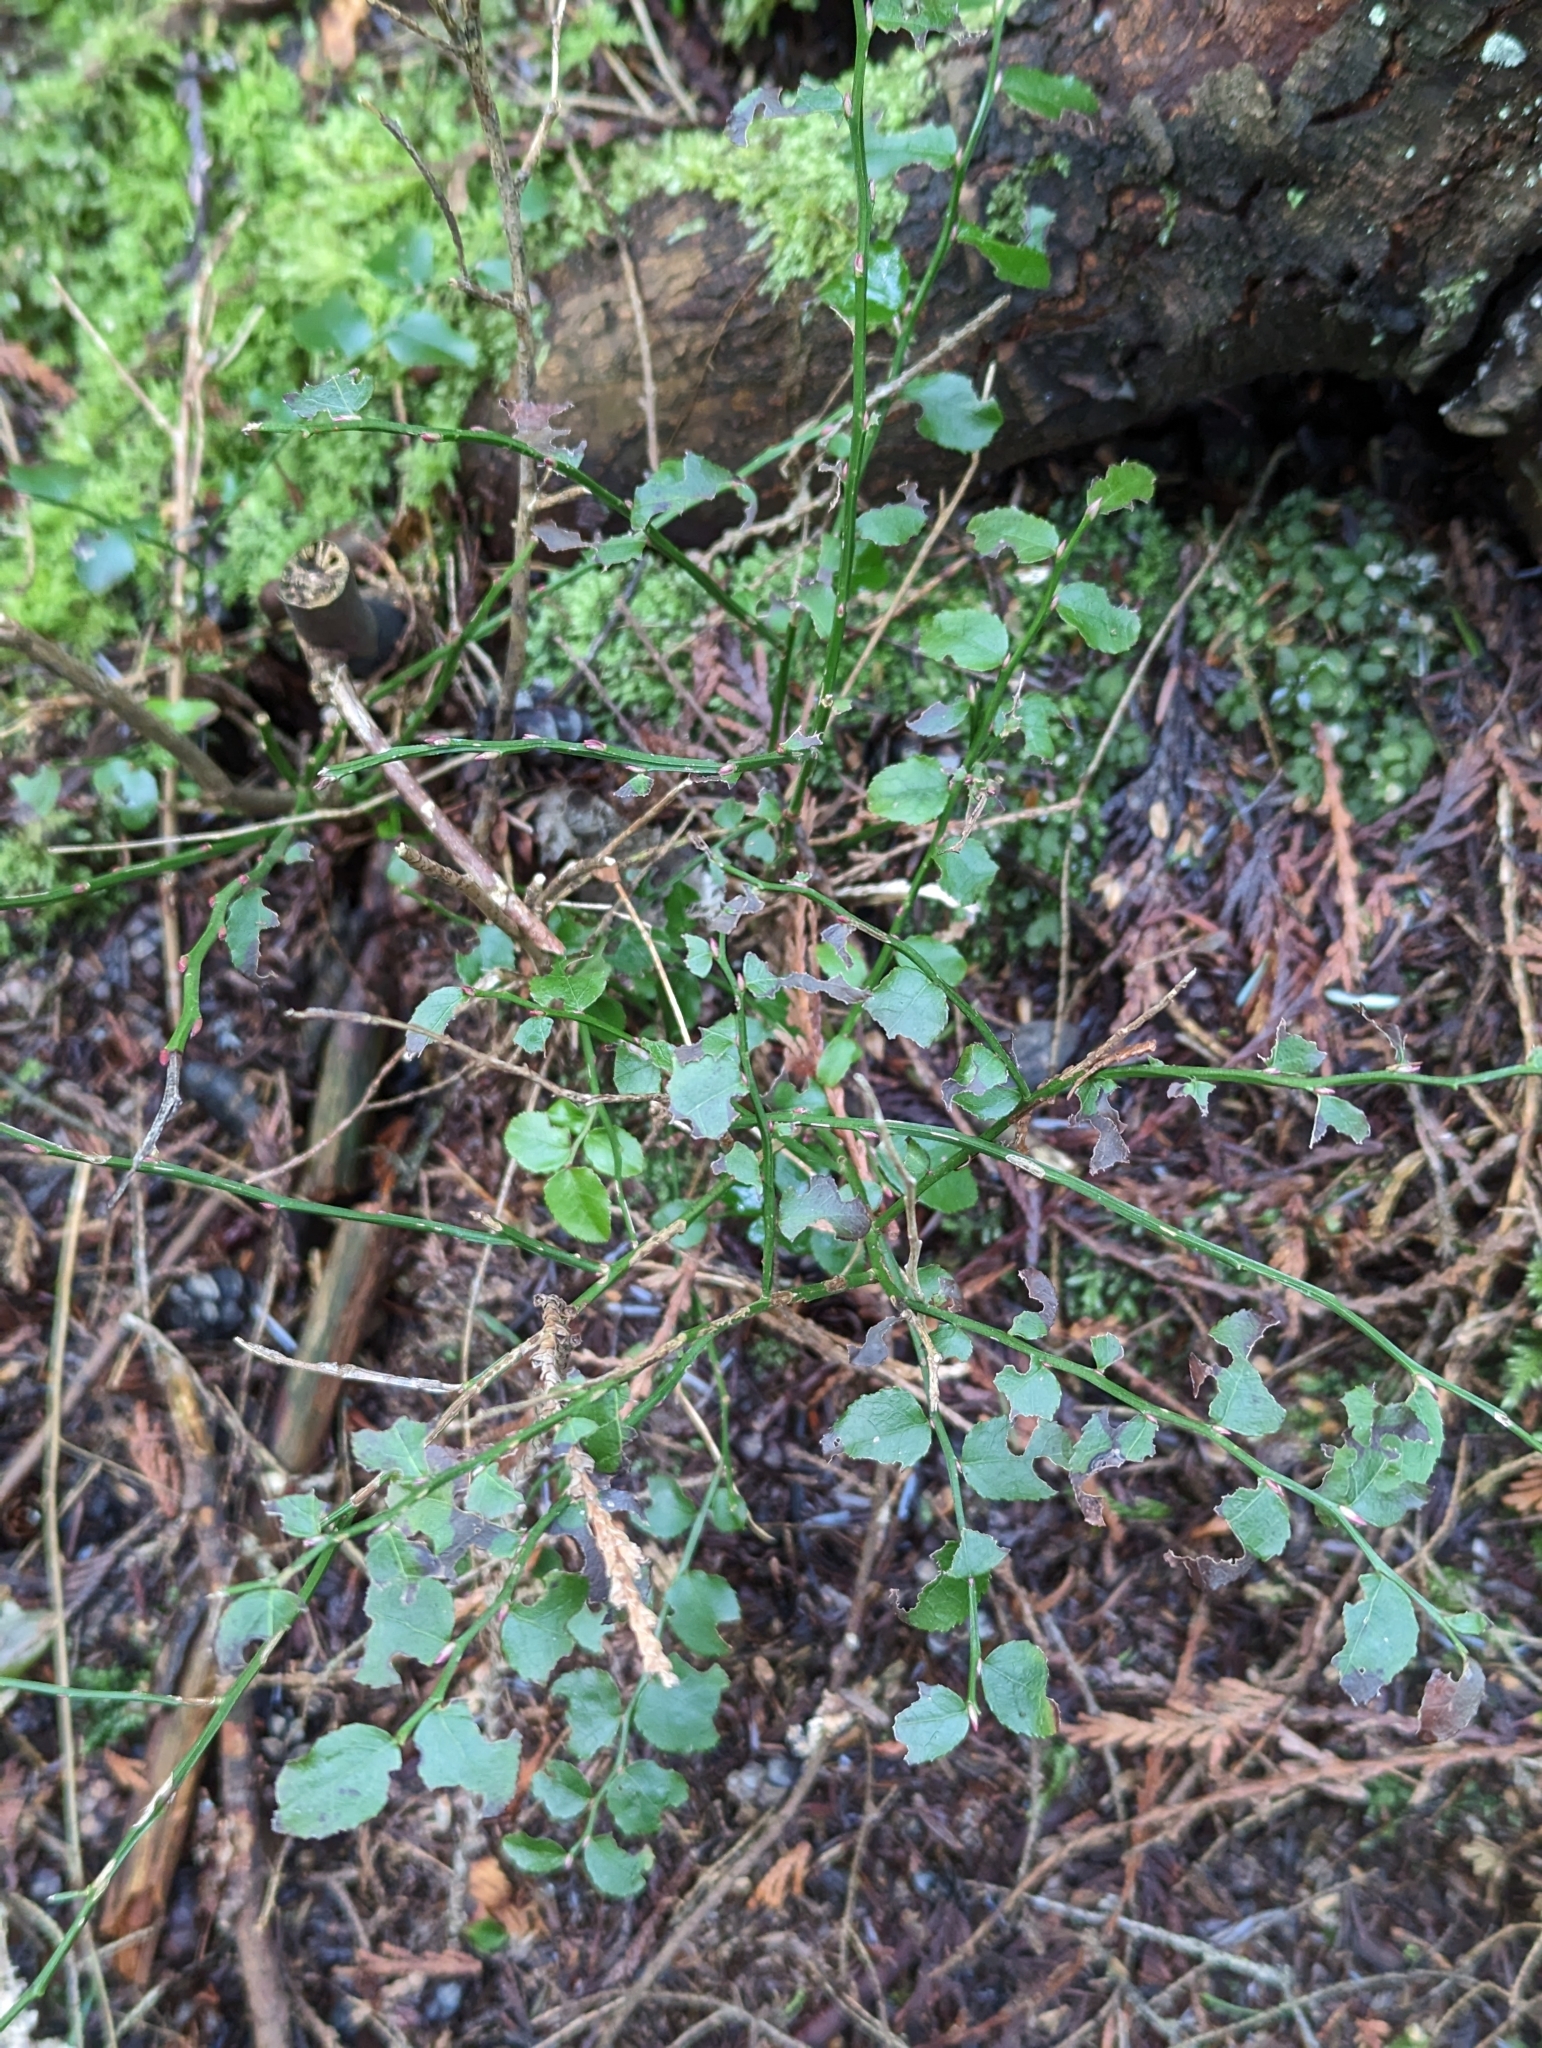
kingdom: Plantae
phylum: Tracheophyta
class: Magnoliopsida
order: Ericales
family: Ericaceae
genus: Vaccinium
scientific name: Vaccinium parvifolium
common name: Red-huckleberry
